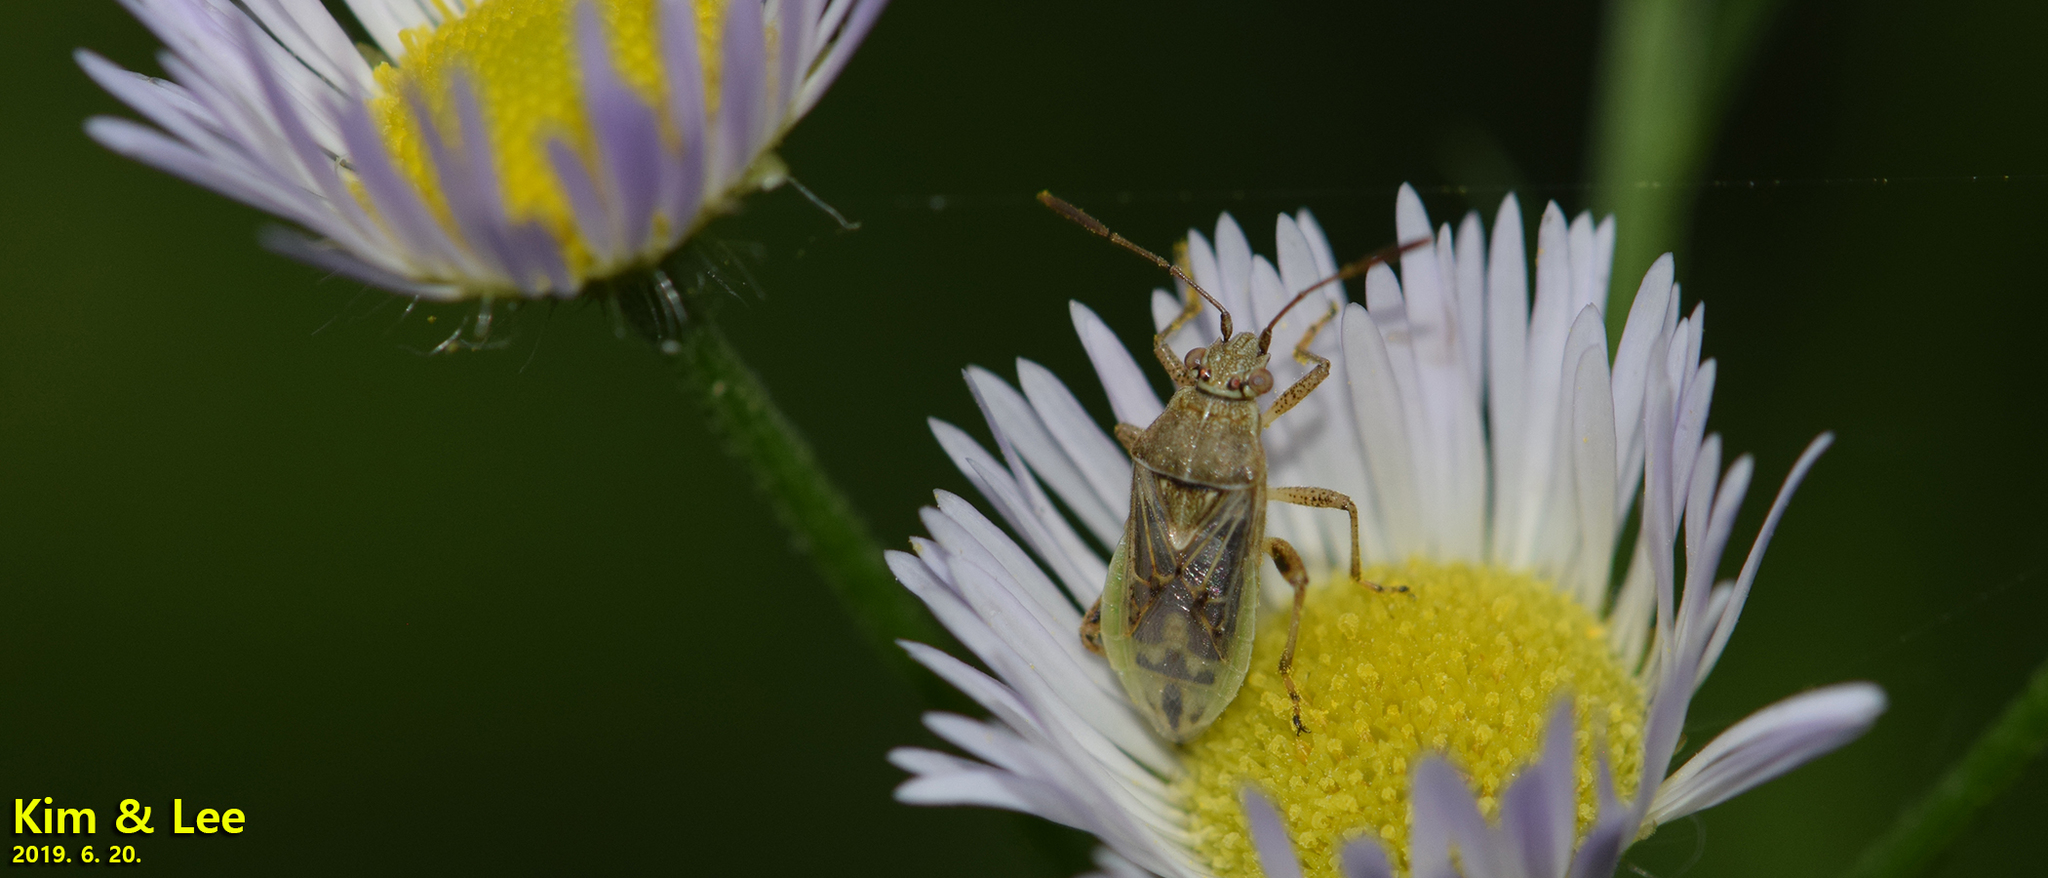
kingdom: Animalia
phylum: Arthropoda
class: Insecta
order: Hemiptera
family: Rhopalidae
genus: Stictopleurus
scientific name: Stictopleurus minutus
